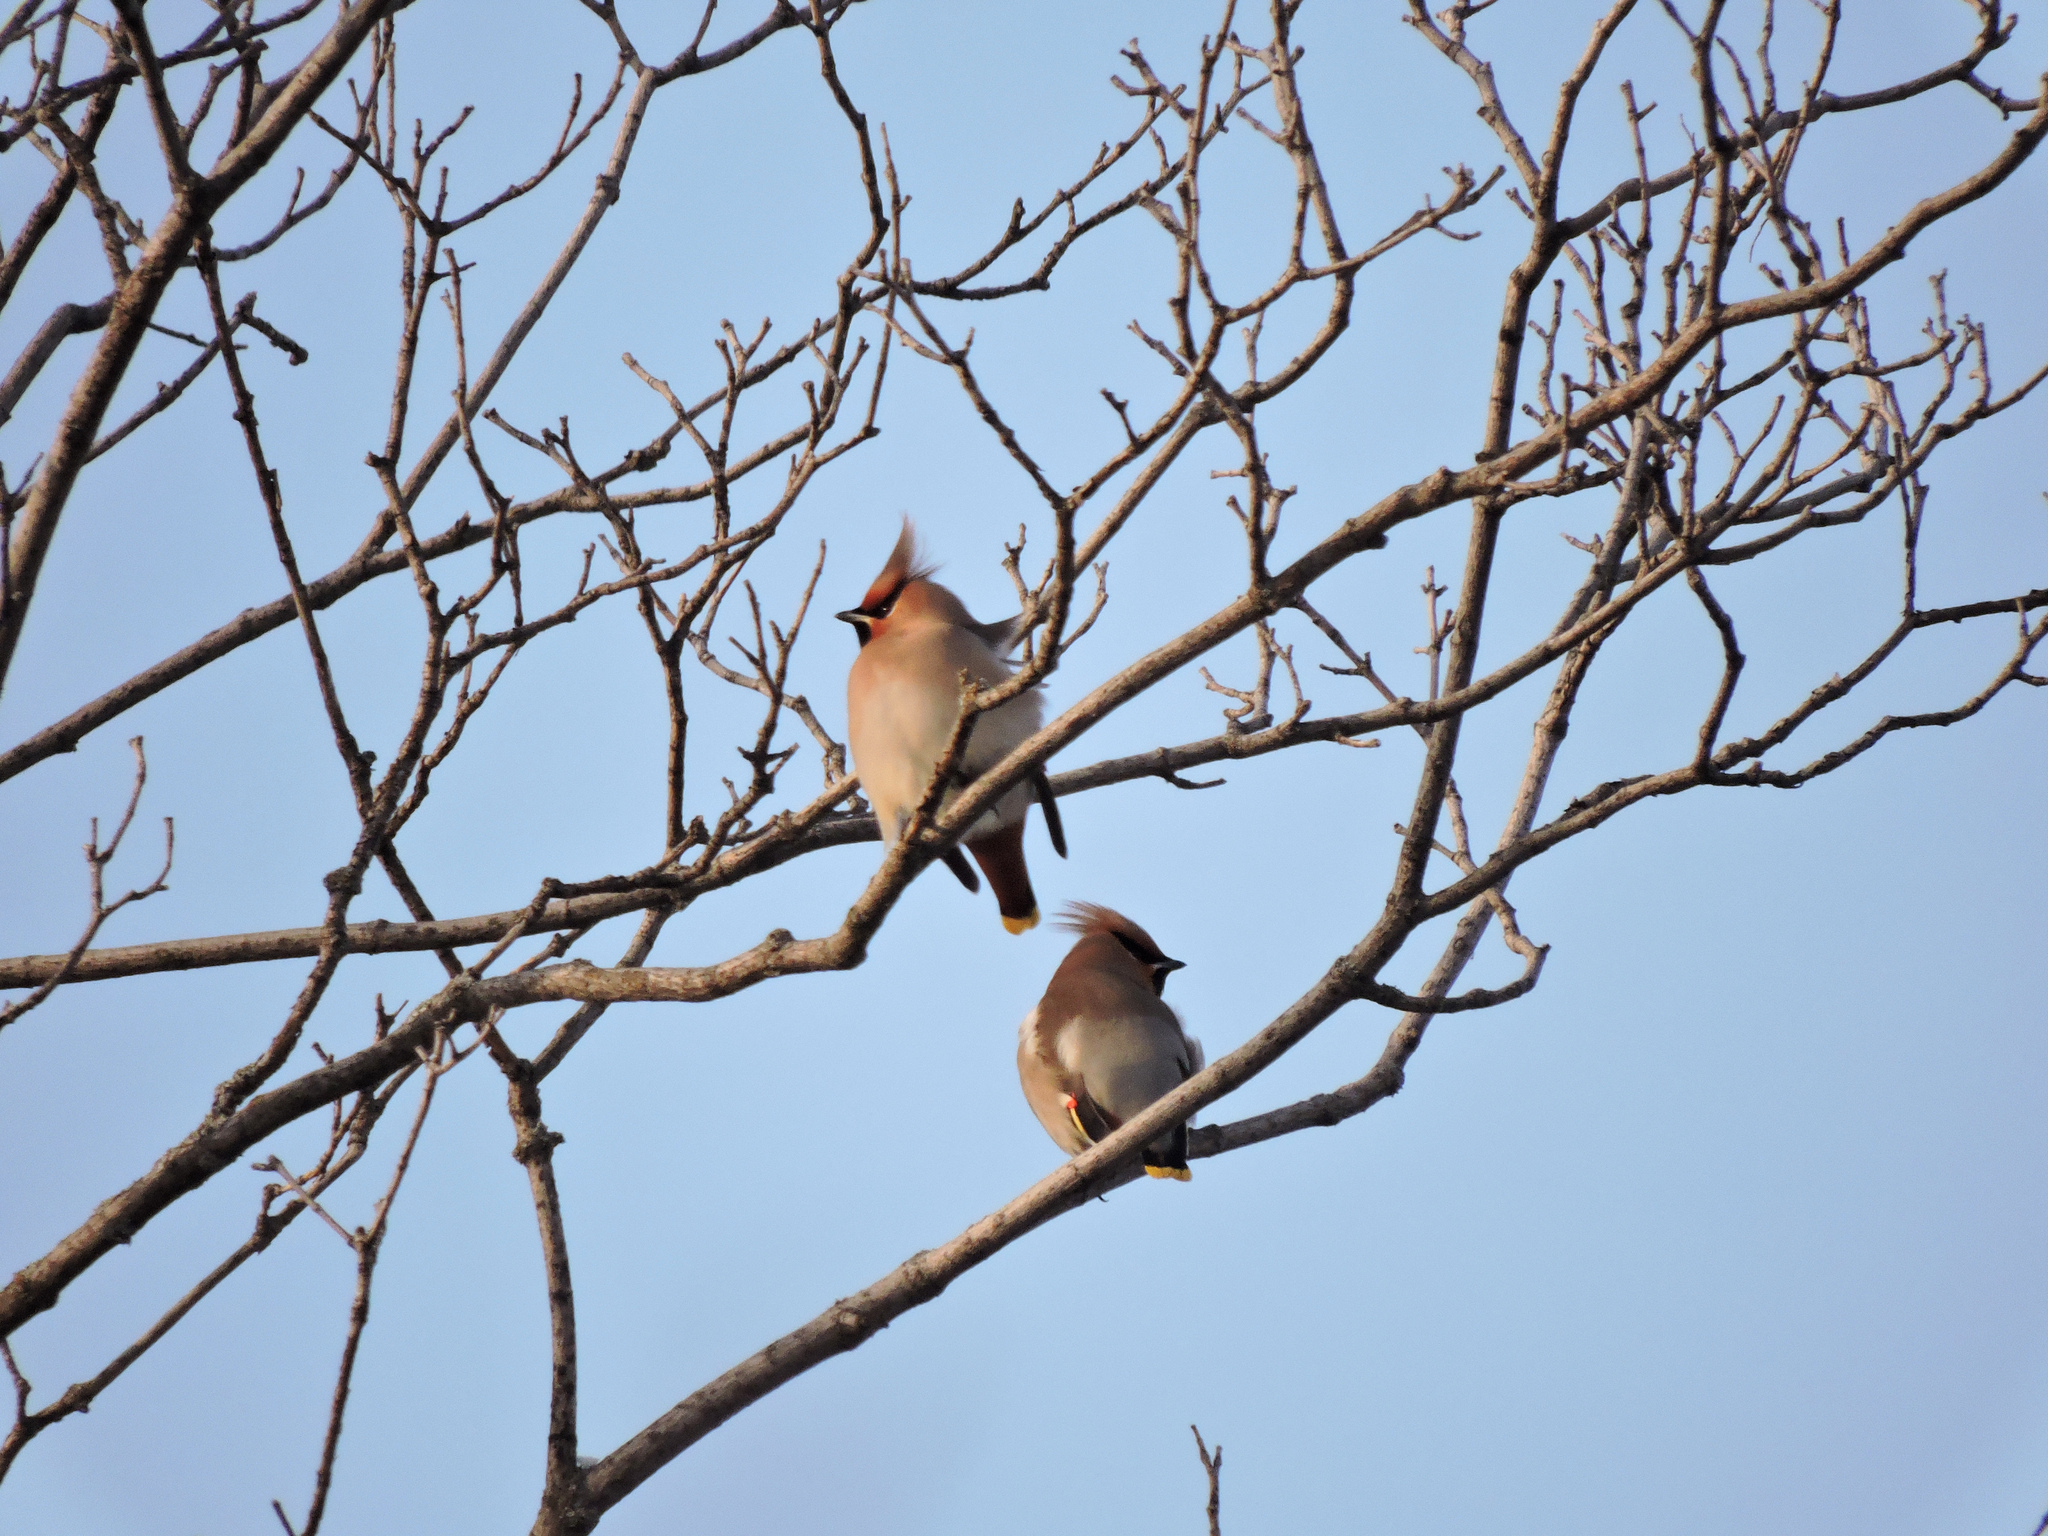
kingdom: Animalia
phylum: Chordata
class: Aves
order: Passeriformes
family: Bombycillidae
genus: Bombycilla
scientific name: Bombycilla garrulus
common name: Bohemian waxwing
